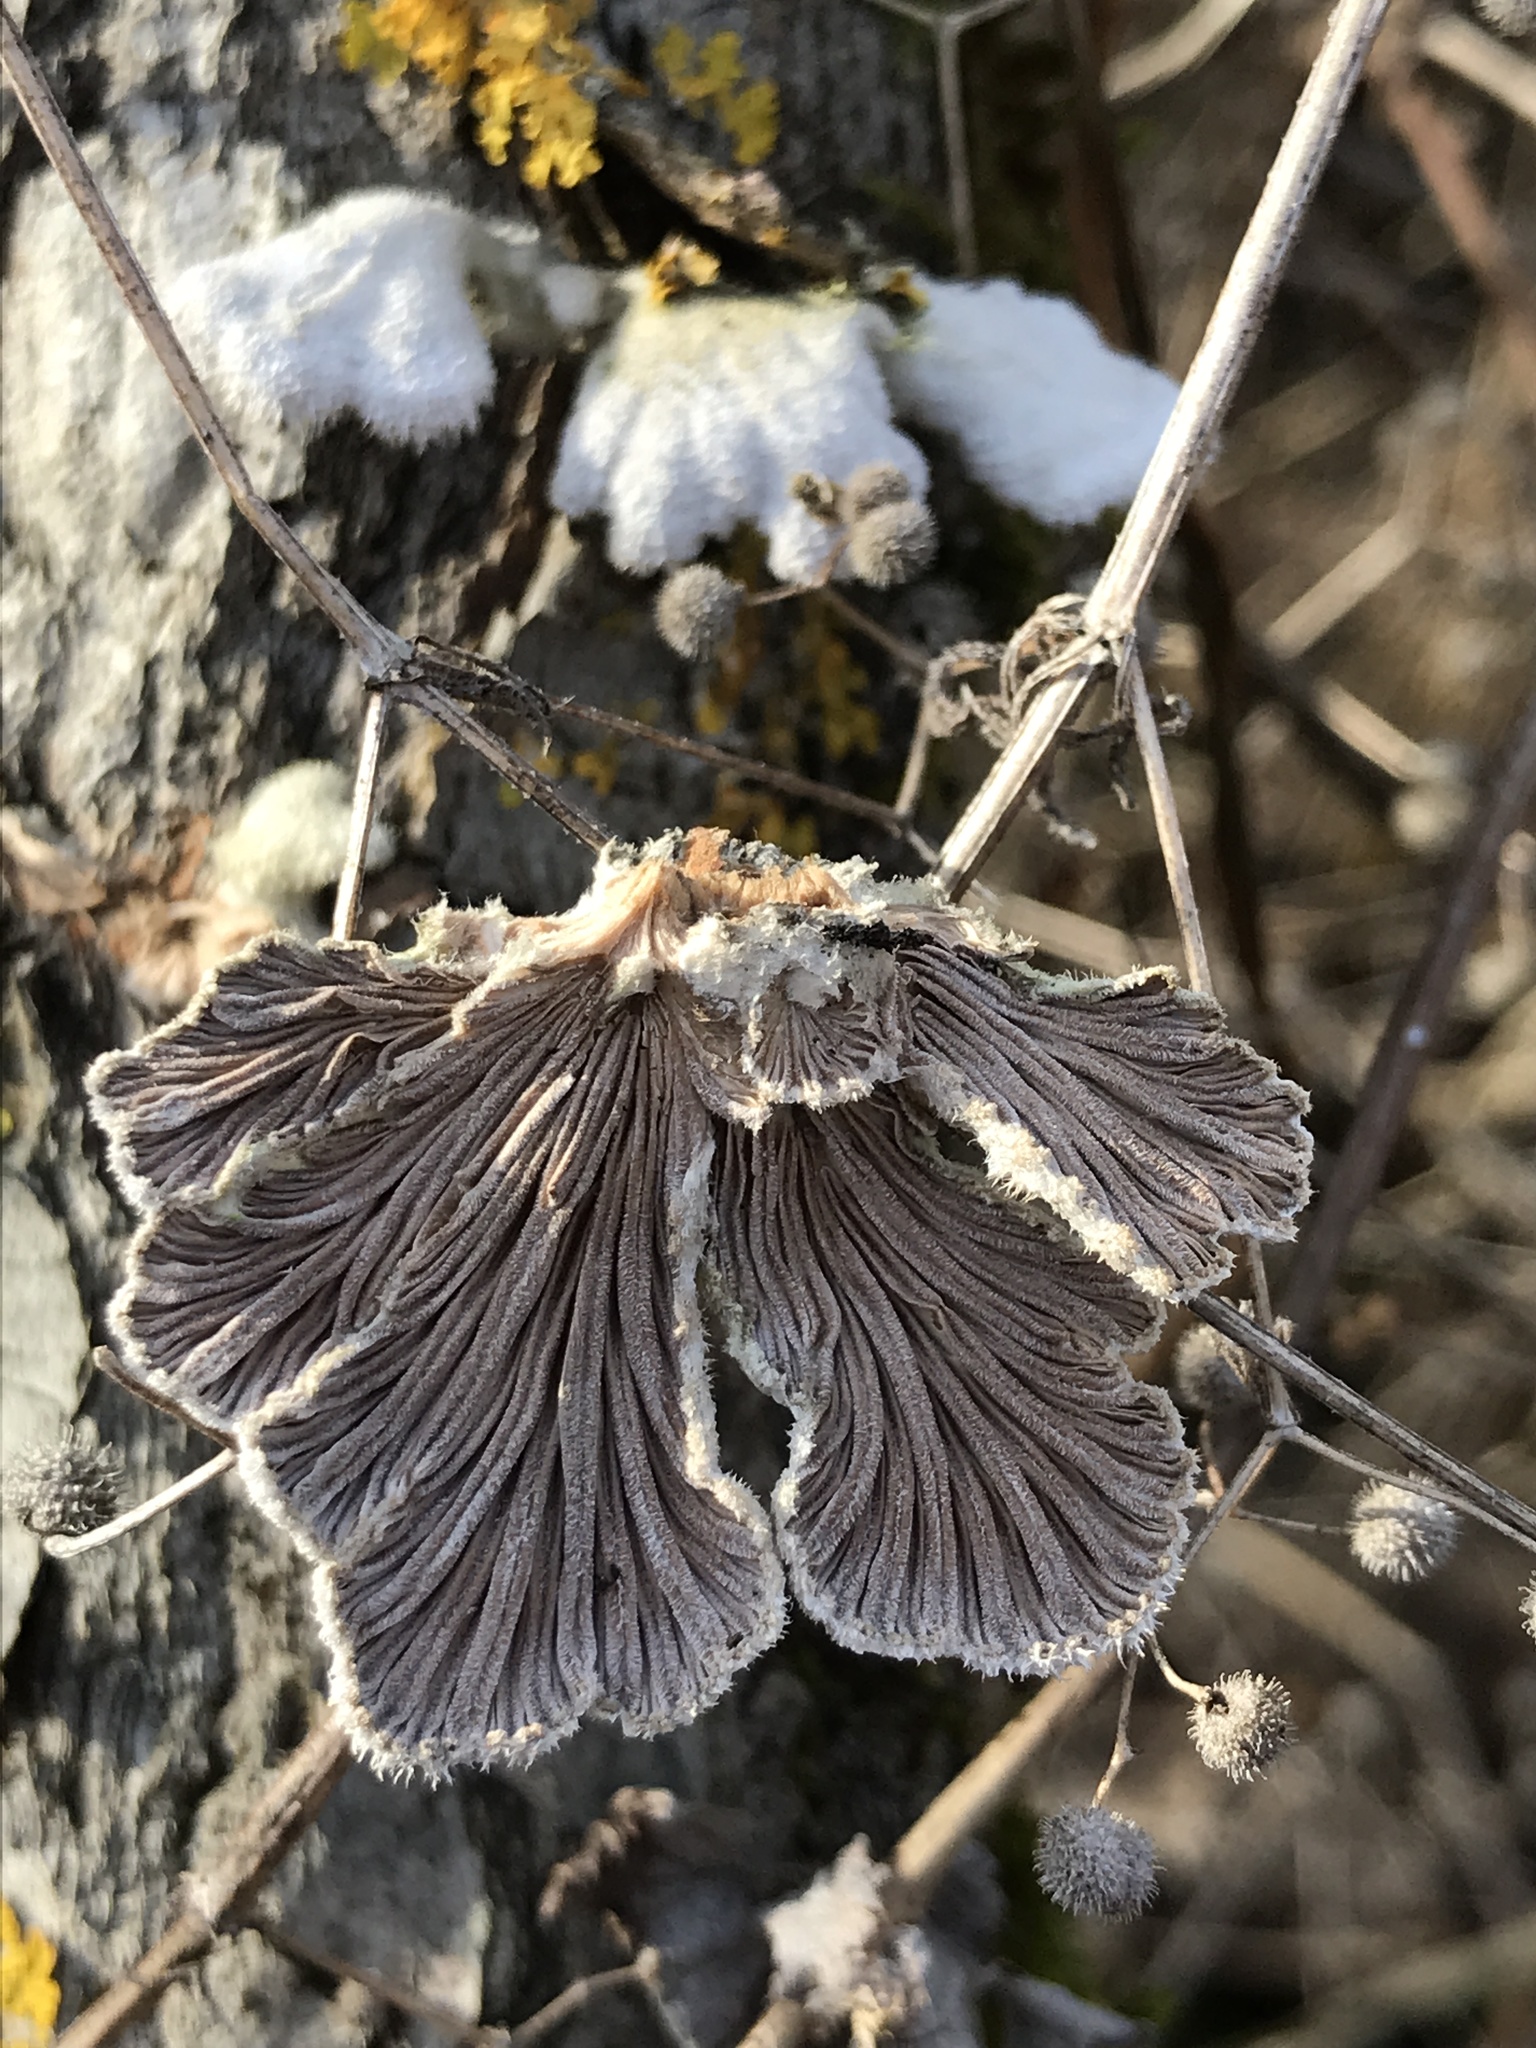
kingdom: Fungi
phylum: Basidiomycota
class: Agaricomycetes
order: Agaricales
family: Schizophyllaceae
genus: Schizophyllum
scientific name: Schizophyllum commune
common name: Common porecrust
